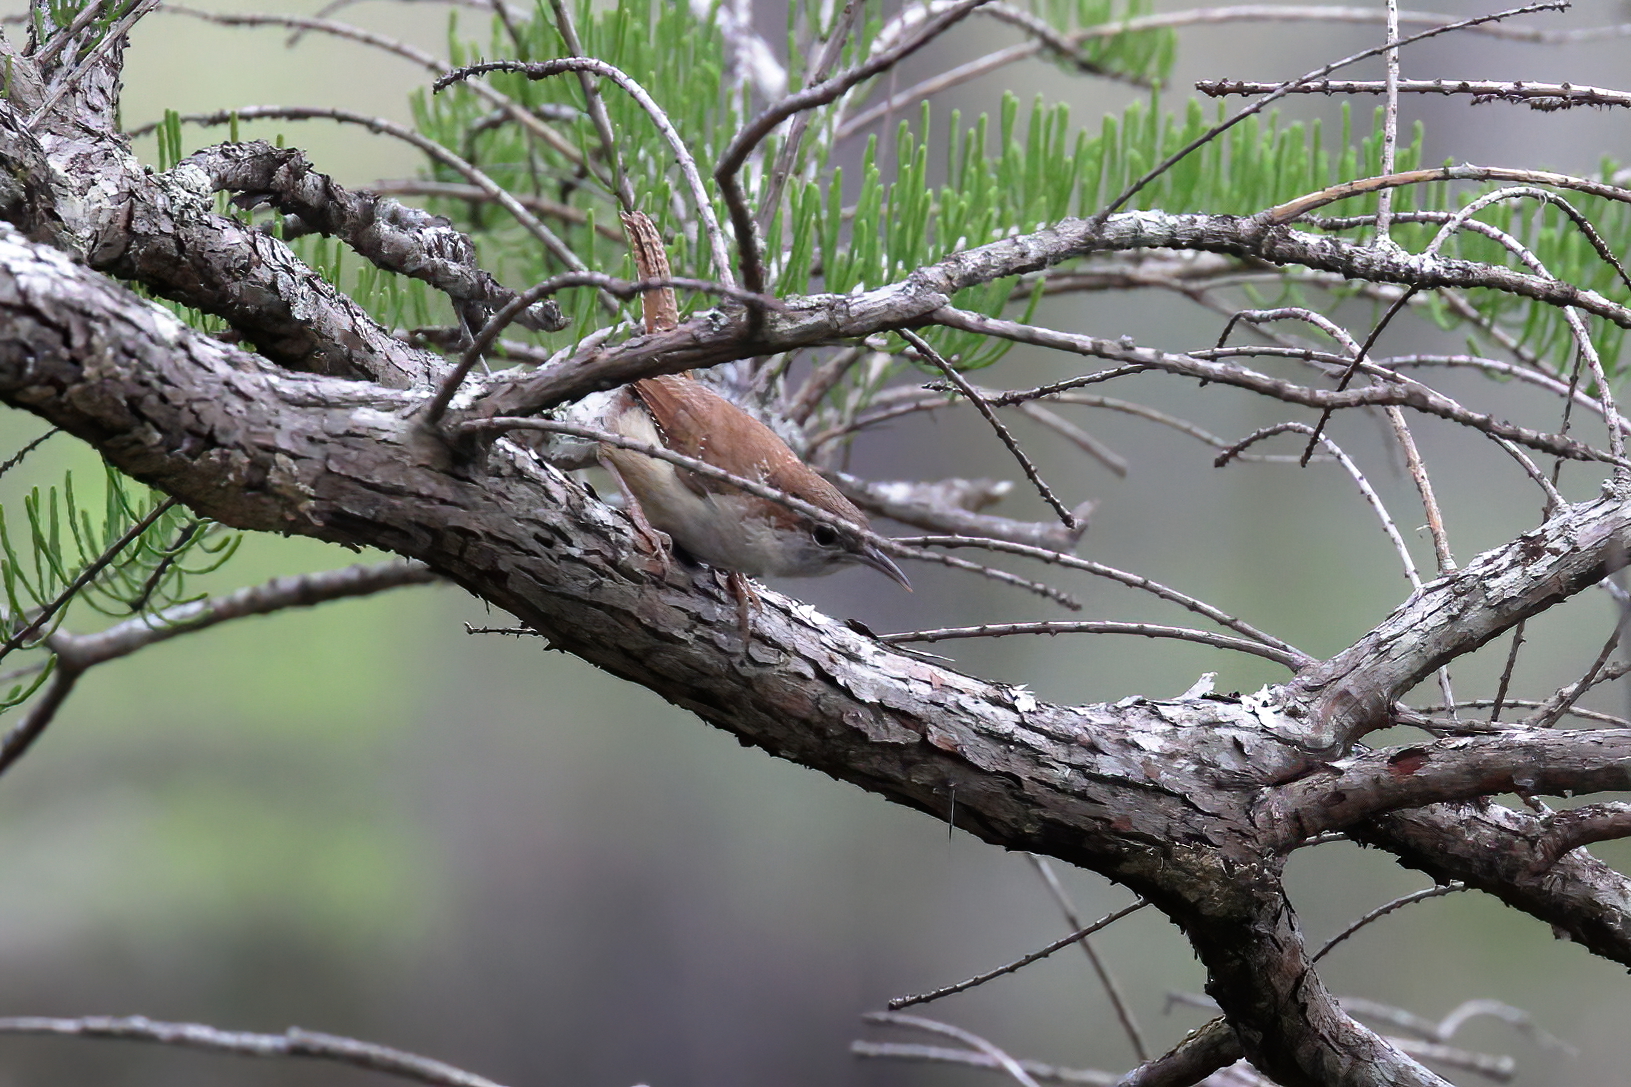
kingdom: Animalia
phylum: Chordata
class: Aves
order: Passeriformes
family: Troglodytidae
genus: Thryothorus
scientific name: Thryothorus ludovicianus
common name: Carolina wren
